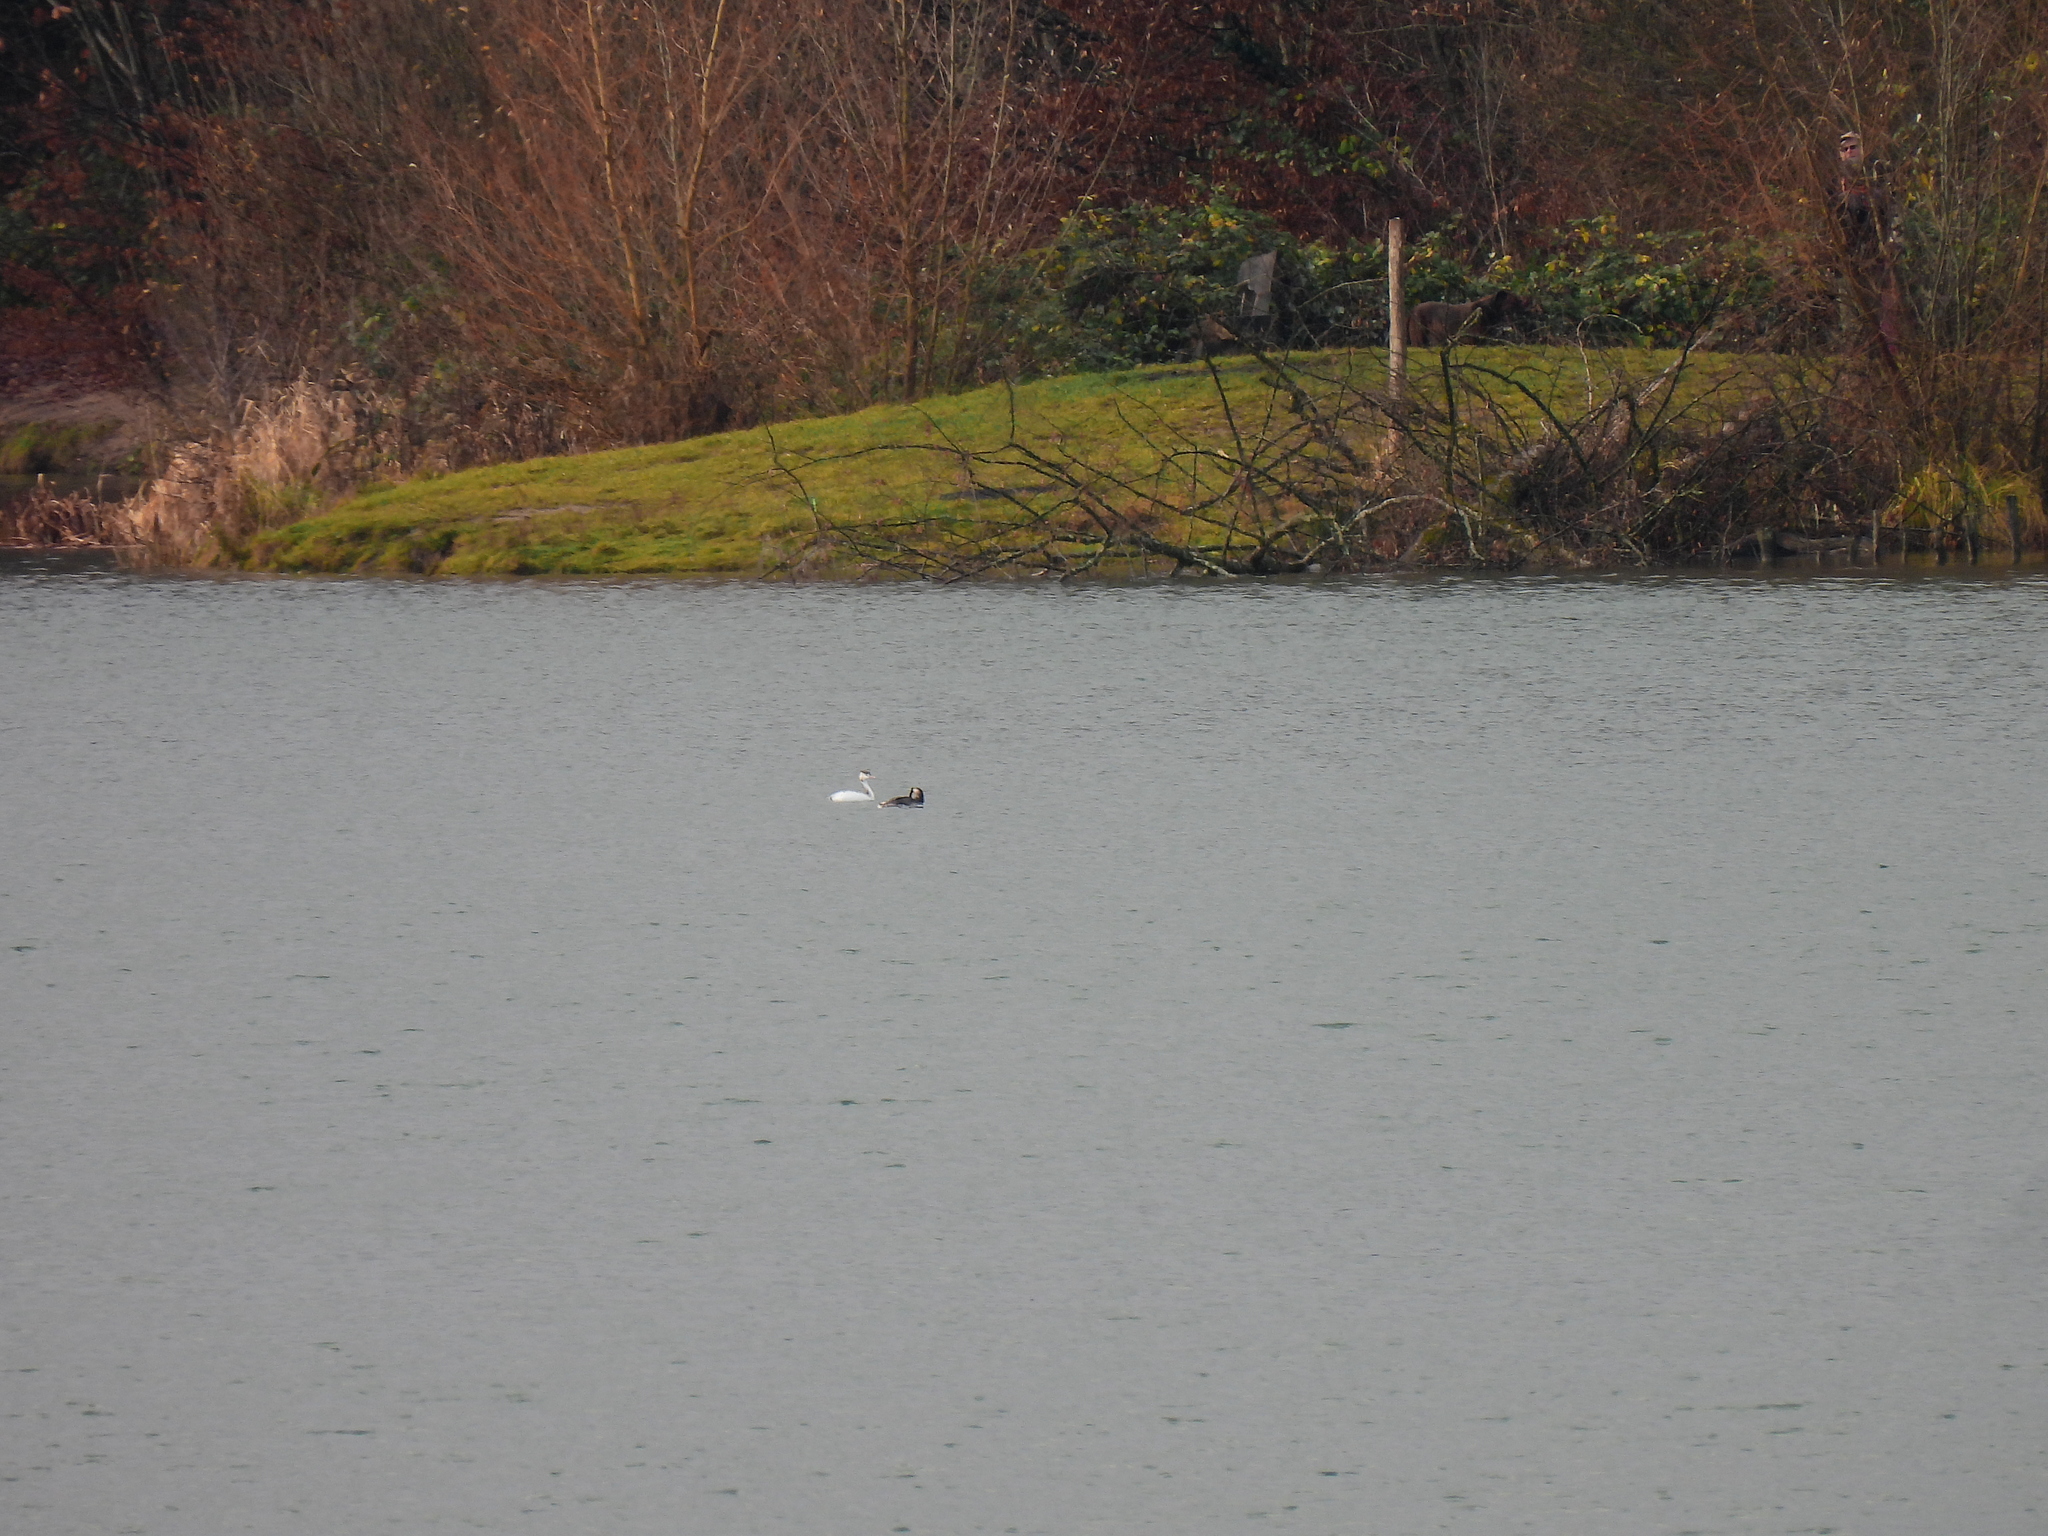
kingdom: Animalia
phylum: Chordata
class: Aves
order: Podicipediformes
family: Podicipedidae
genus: Podiceps
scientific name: Podiceps cristatus
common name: Great crested grebe
